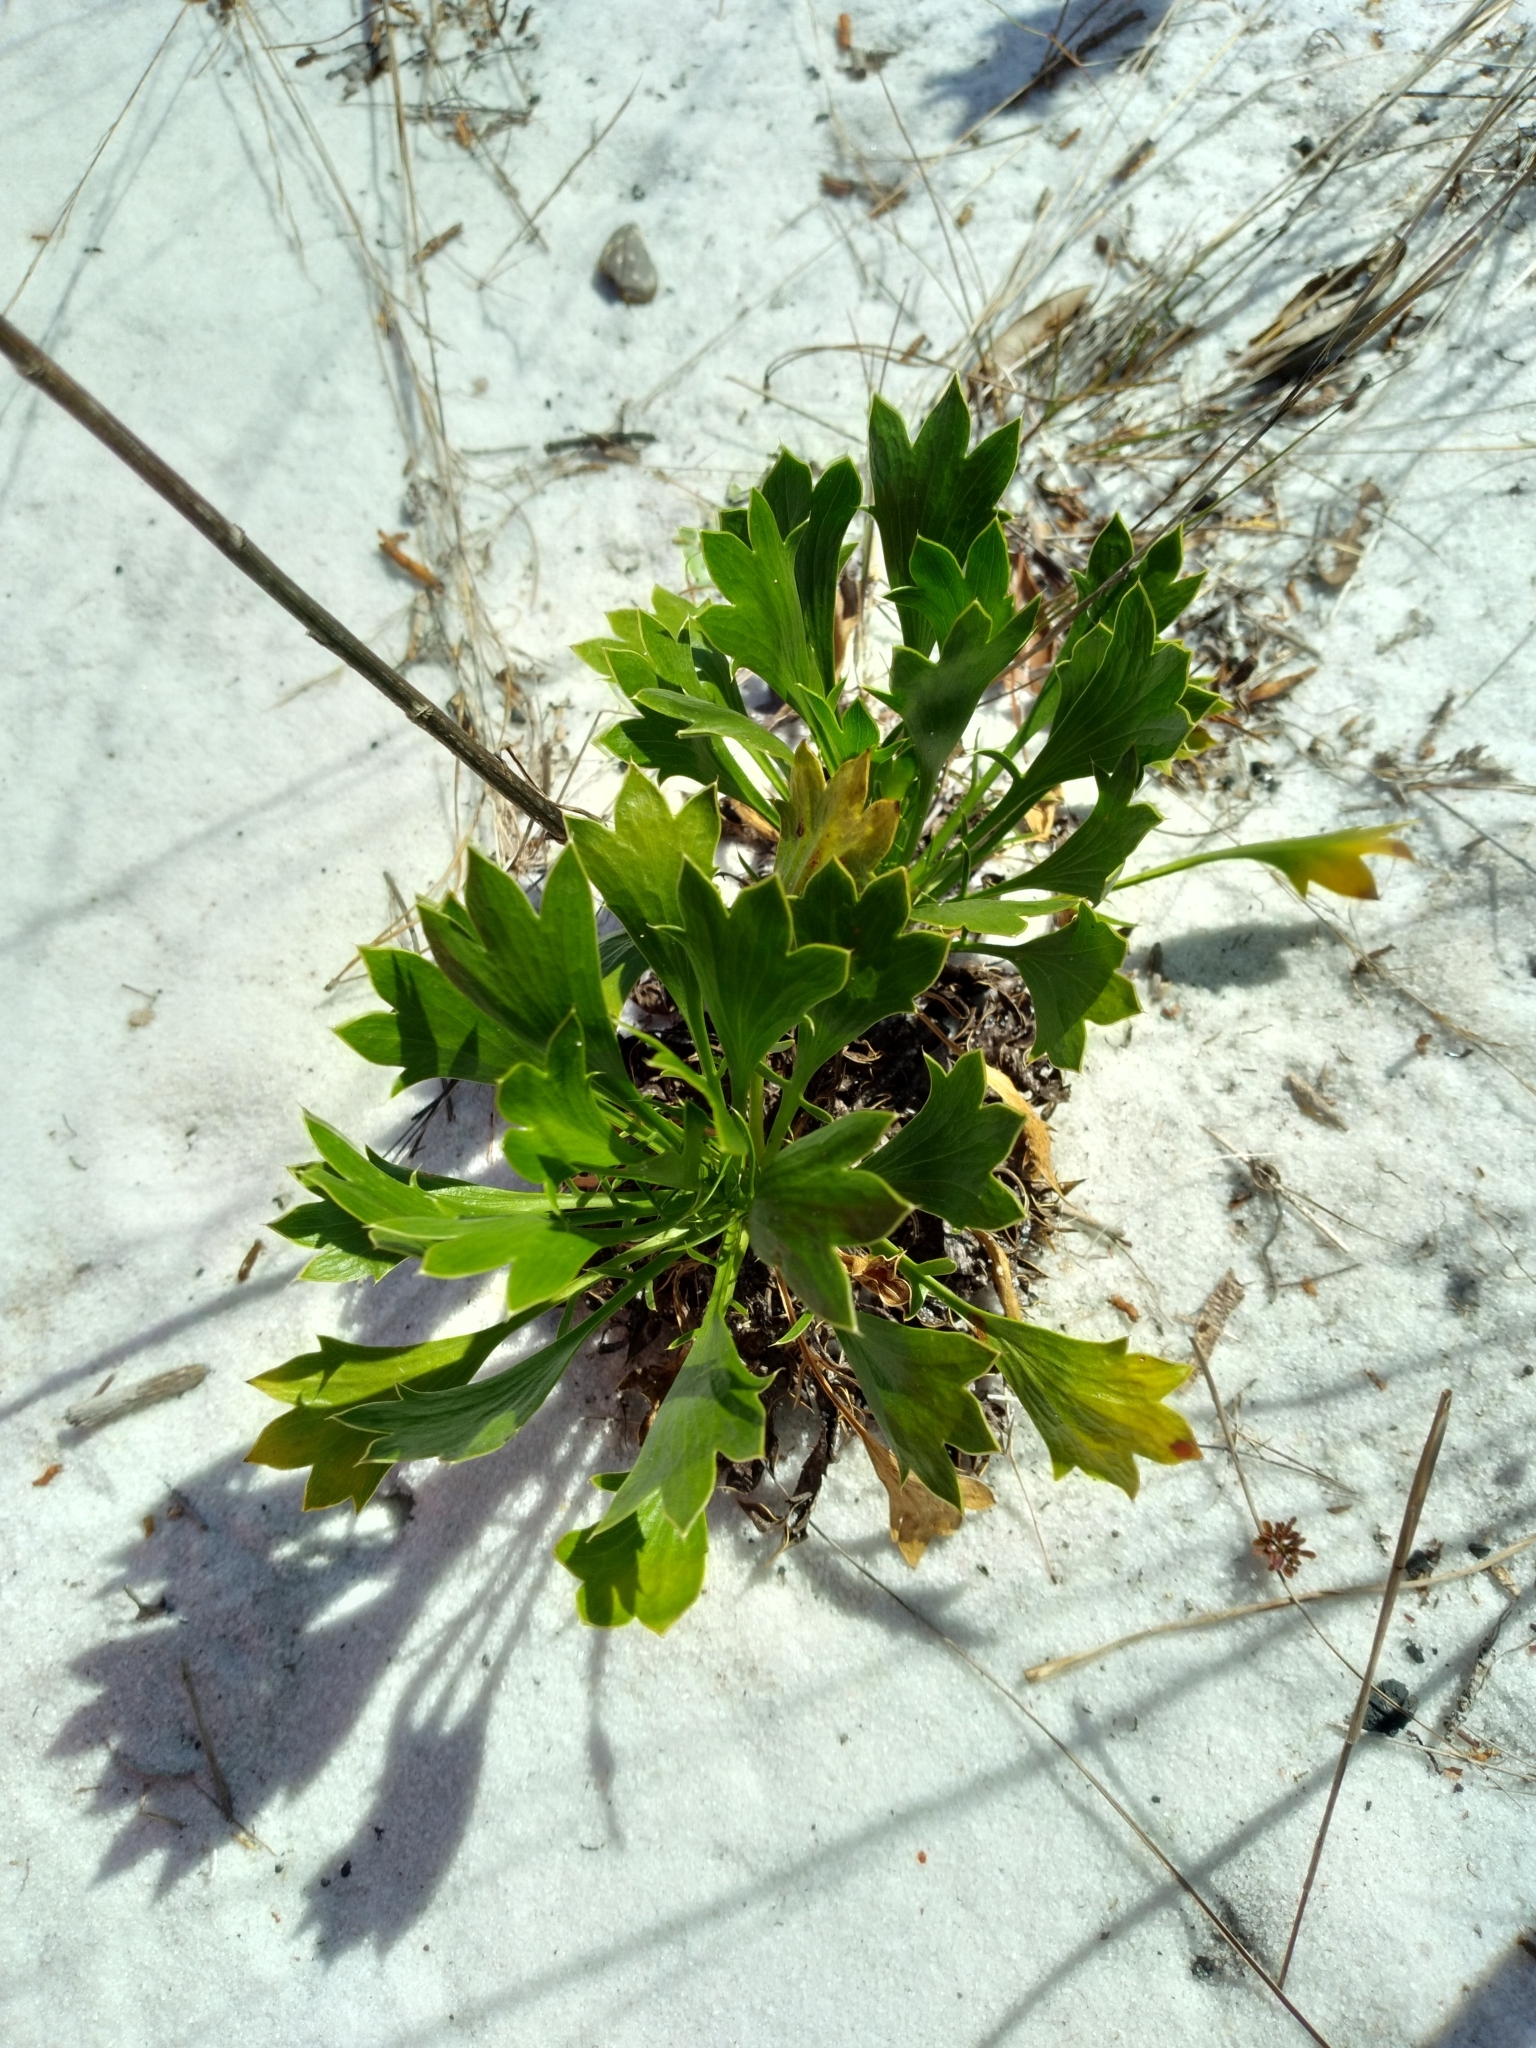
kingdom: Plantae
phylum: Tracheophyta
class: Magnoliopsida
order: Apiales
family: Apiaceae
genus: Eryngium
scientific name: Eryngium cuneifolium
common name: Snakeroot
